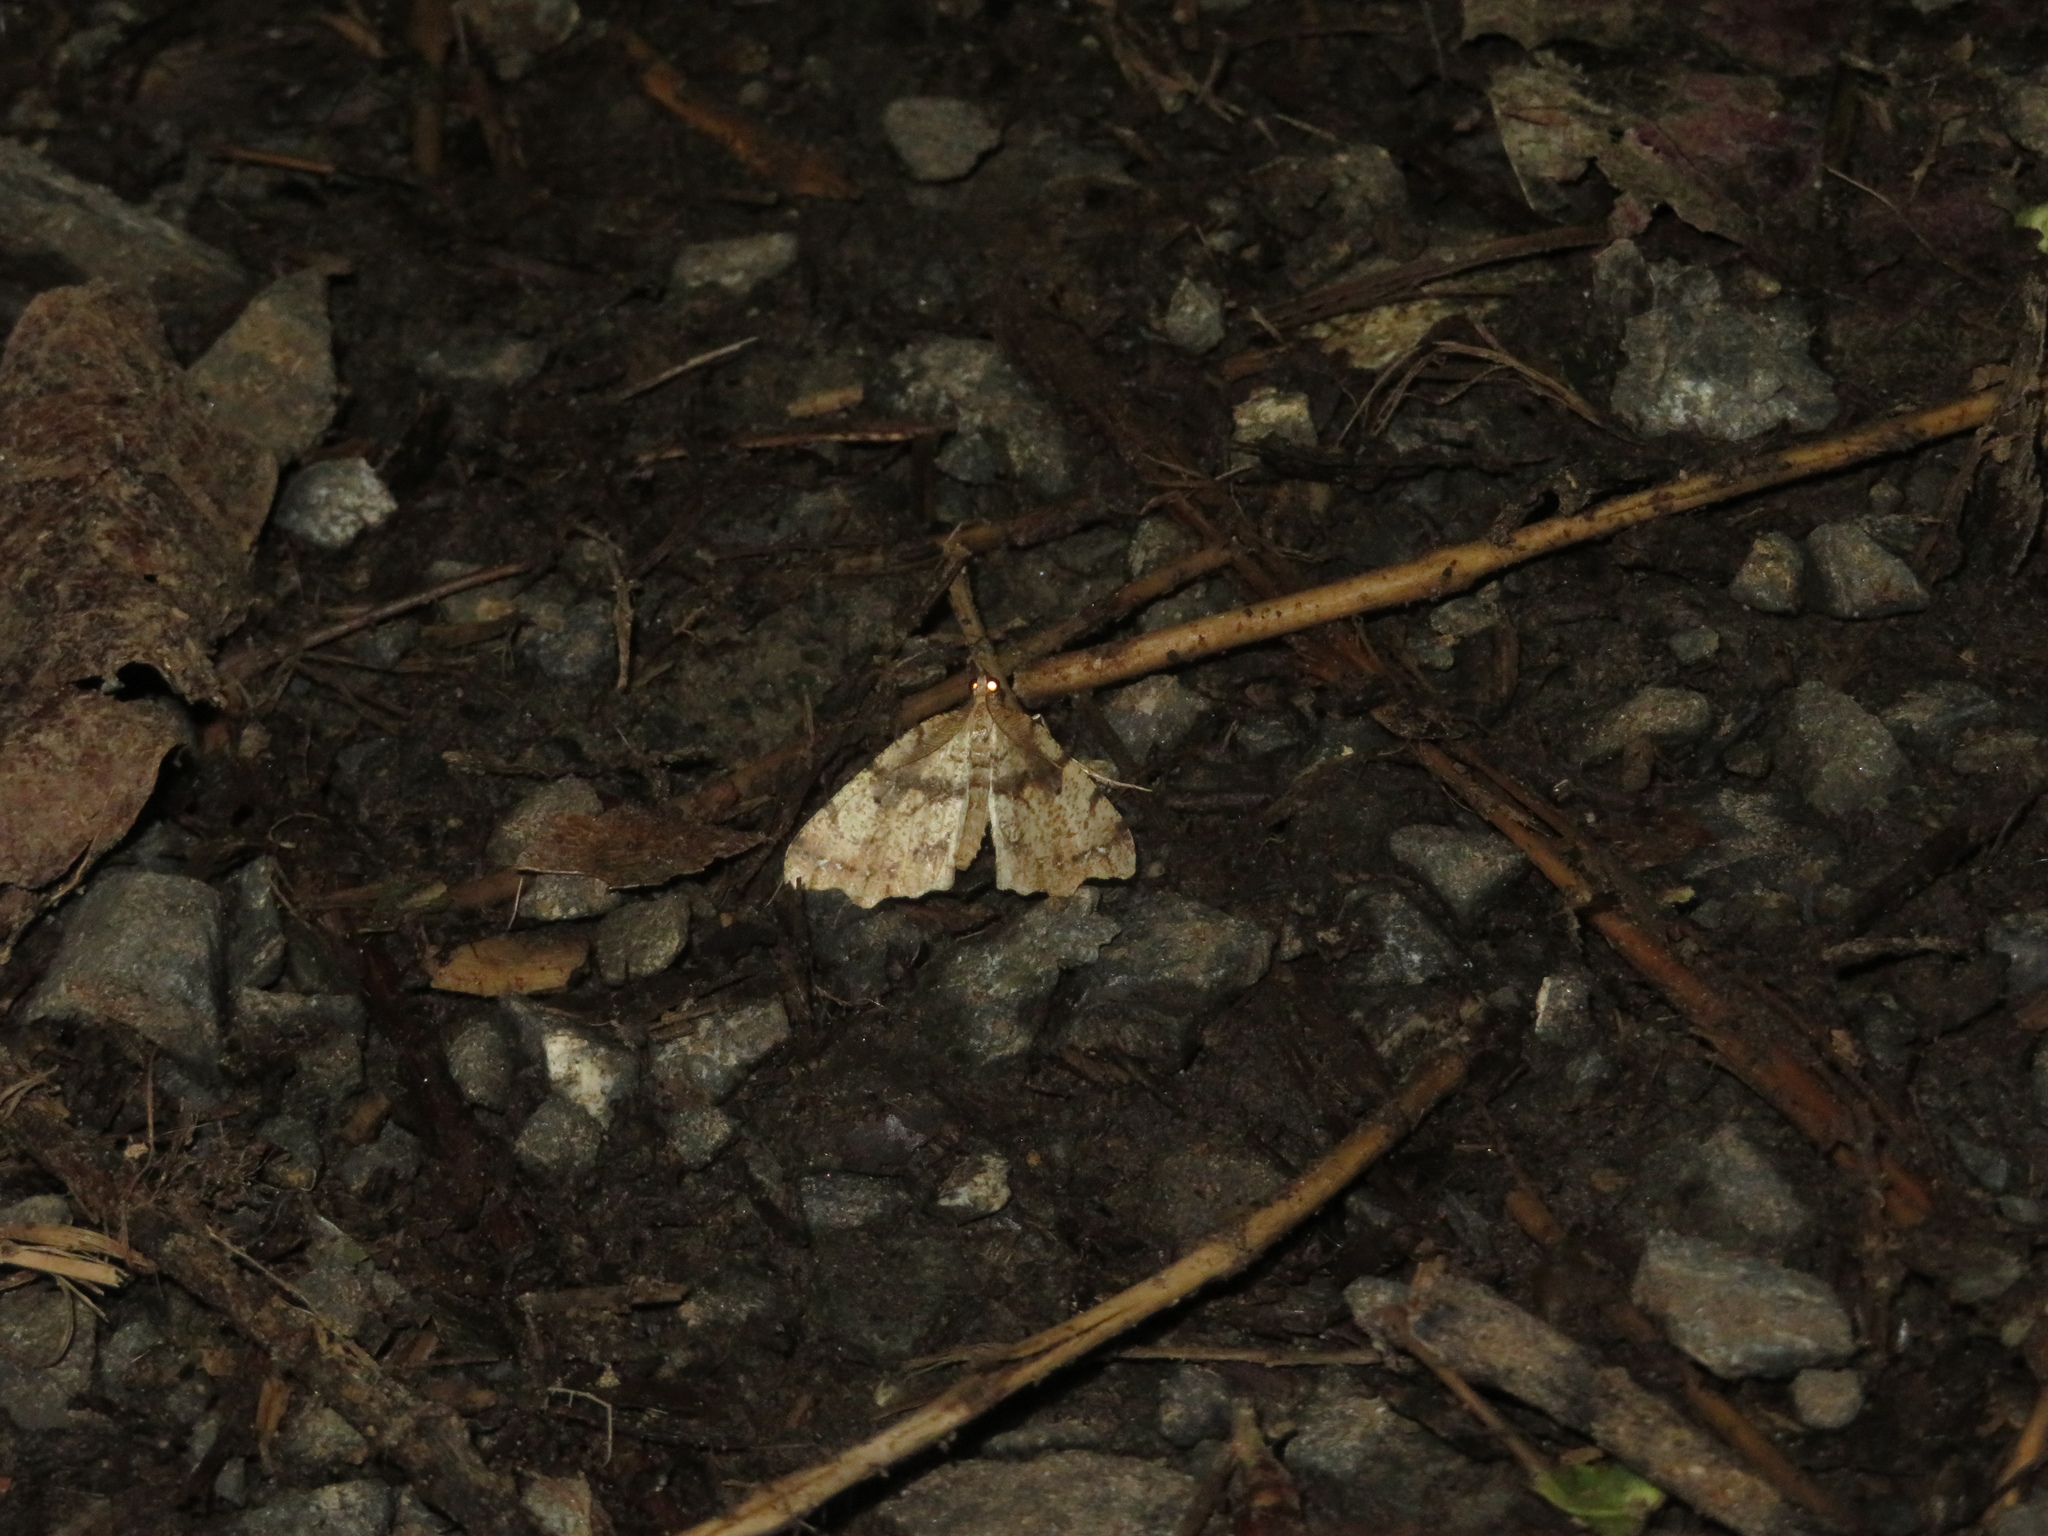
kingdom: Animalia
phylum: Arthropoda
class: Insecta
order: Lepidoptera
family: Geometridae
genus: Chalastra
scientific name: Chalastra pellurgata
